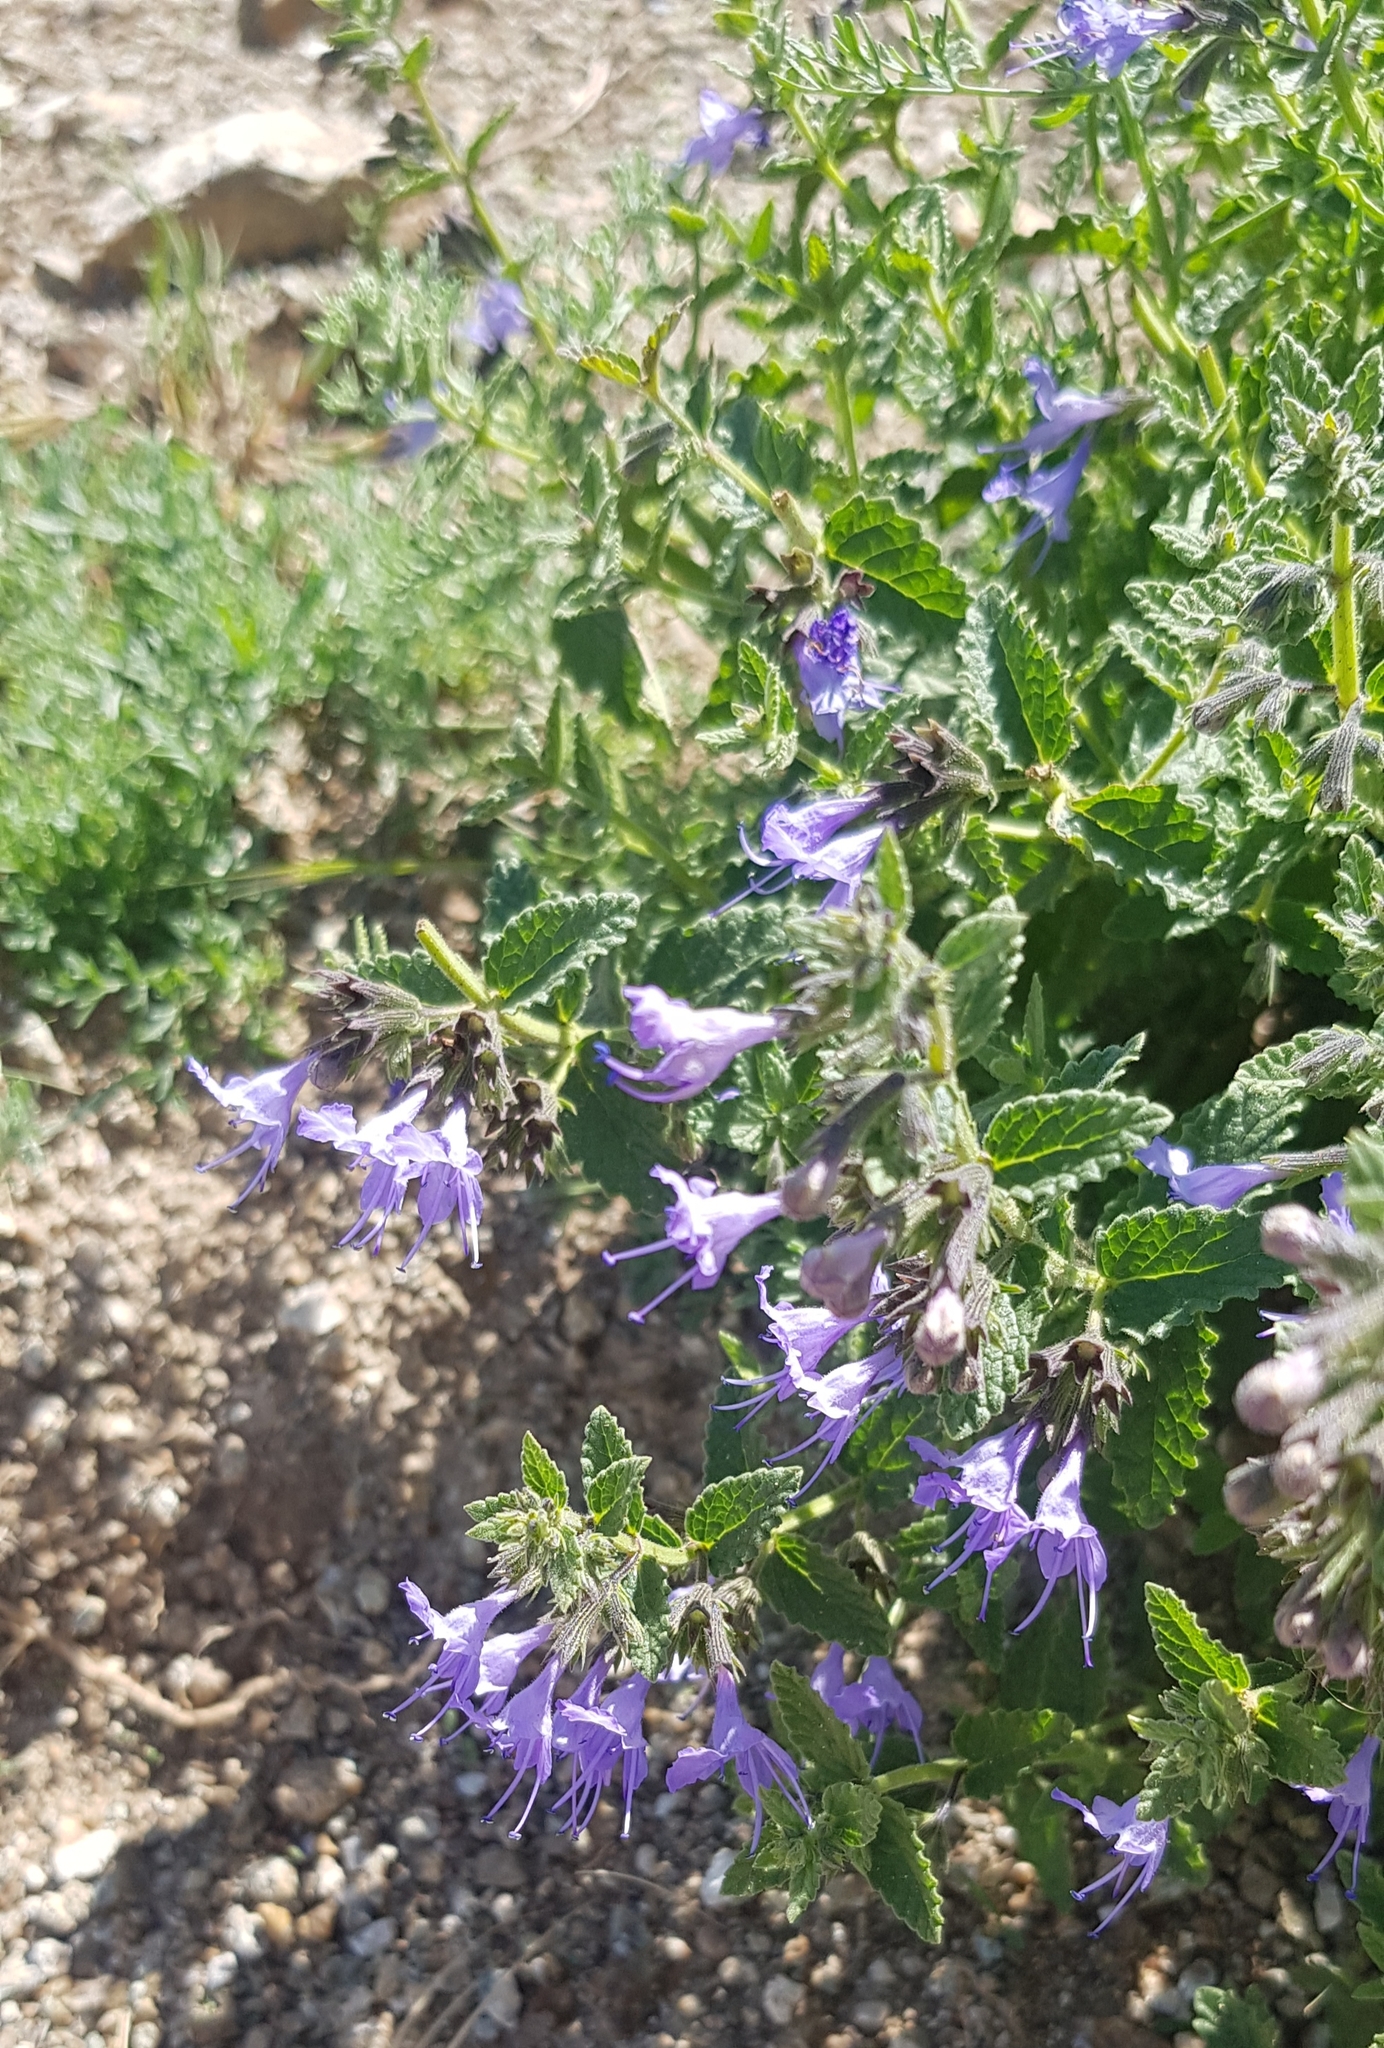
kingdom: Plantae
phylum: Tracheophyta
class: Magnoliopsida
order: Lamiales
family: Lamiaceae
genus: Nepeta
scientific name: Nepeta lophanthus
